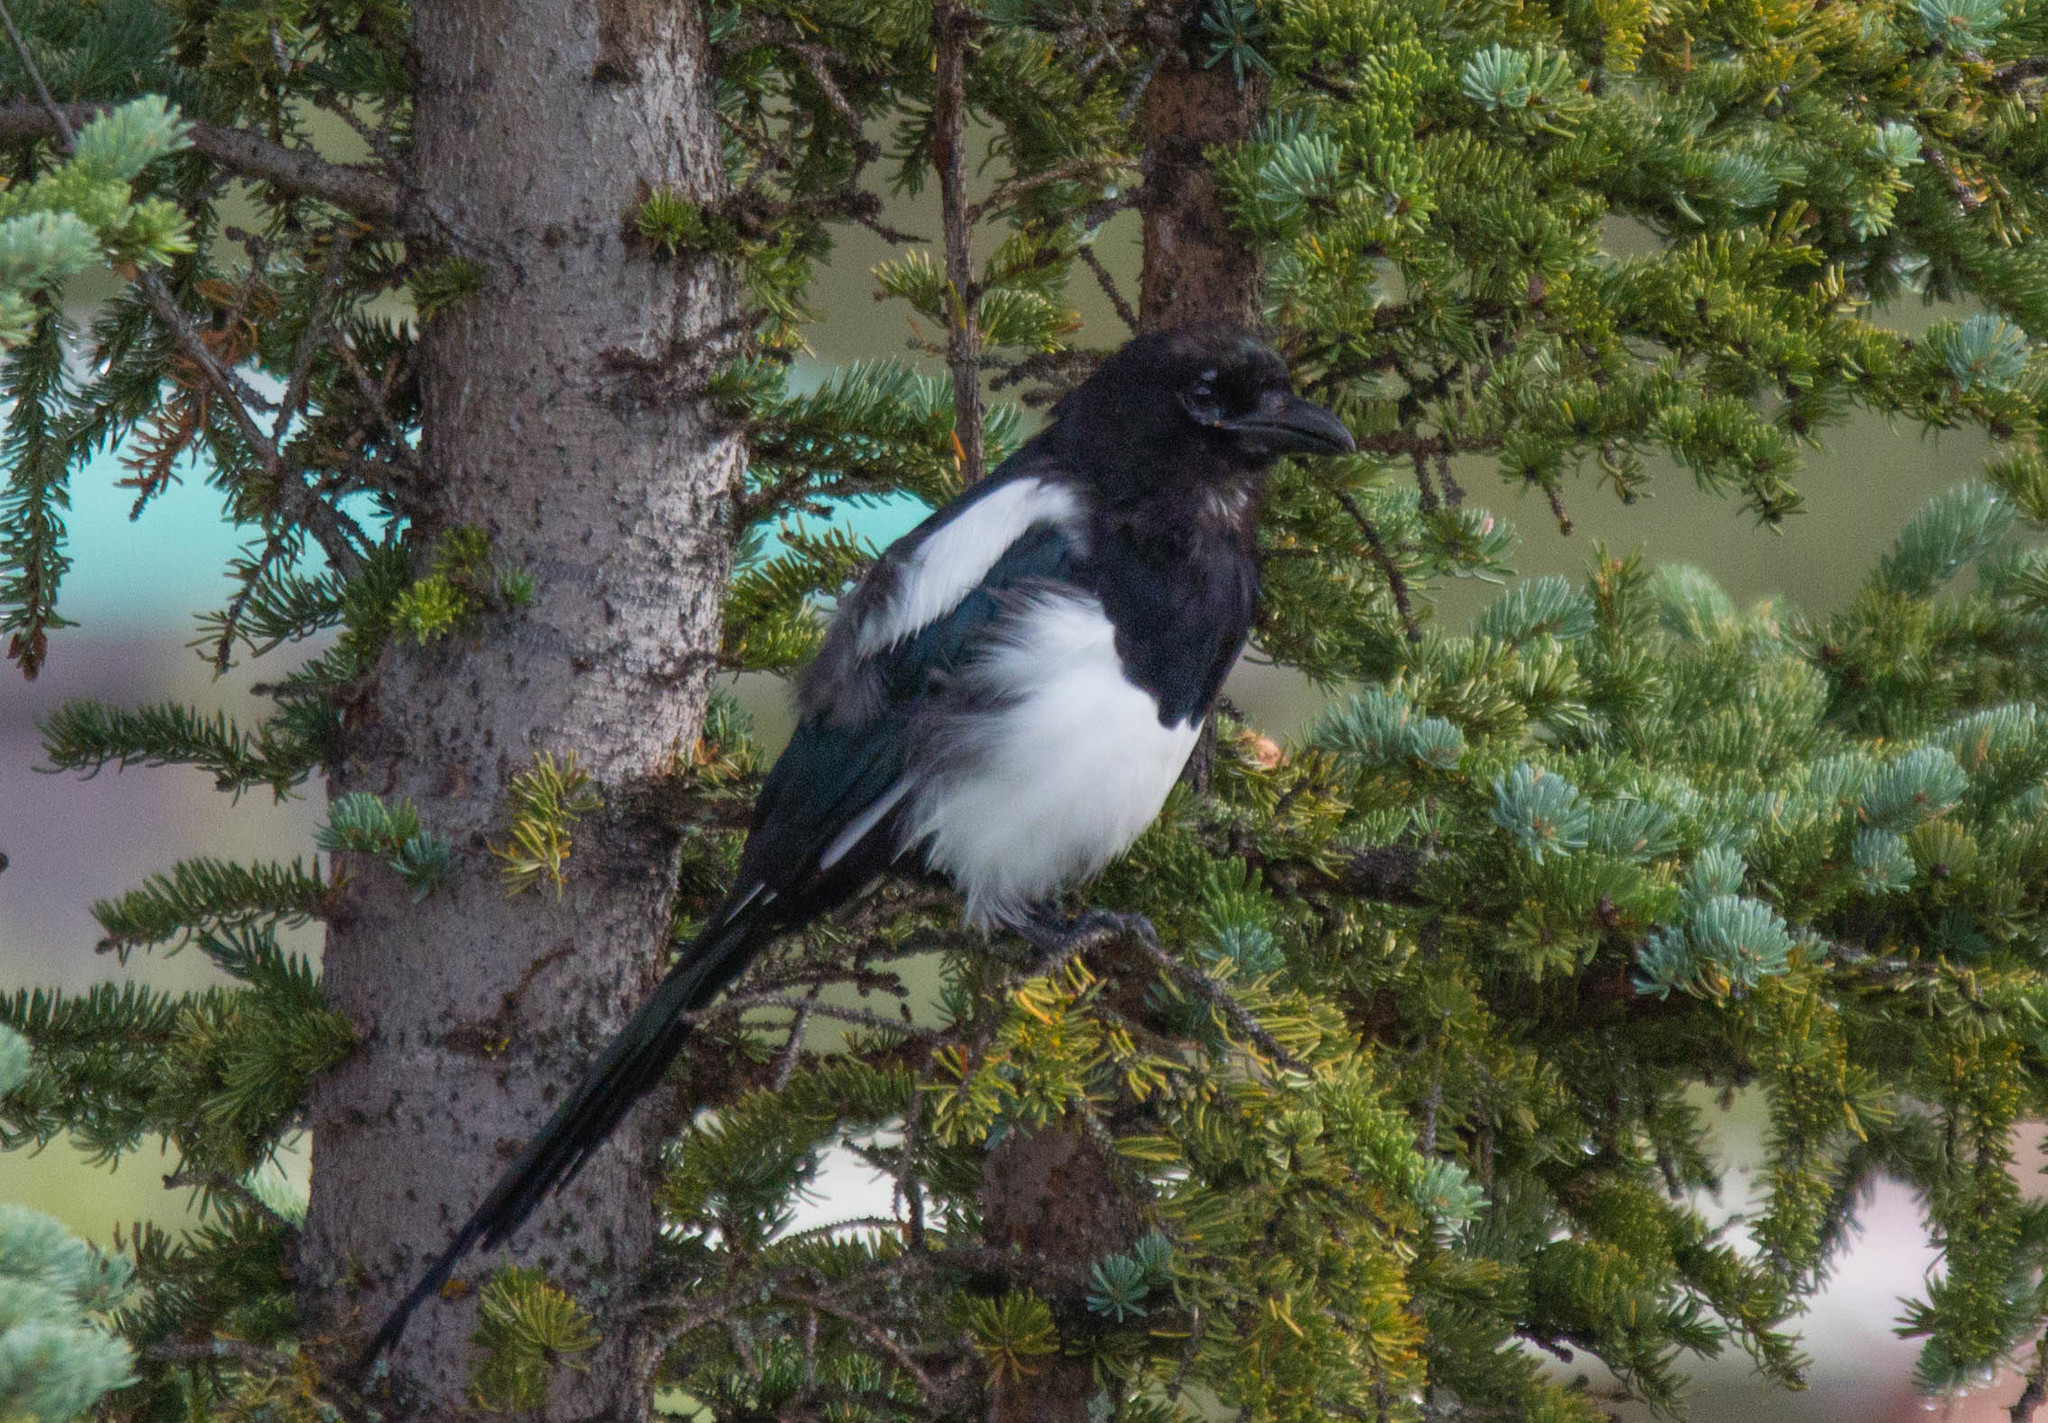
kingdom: Animalia
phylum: Chordata
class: Aves
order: Passeriformes
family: Corvidae
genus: Pica
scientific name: Pica hudsonia
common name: Black-billed magpie
